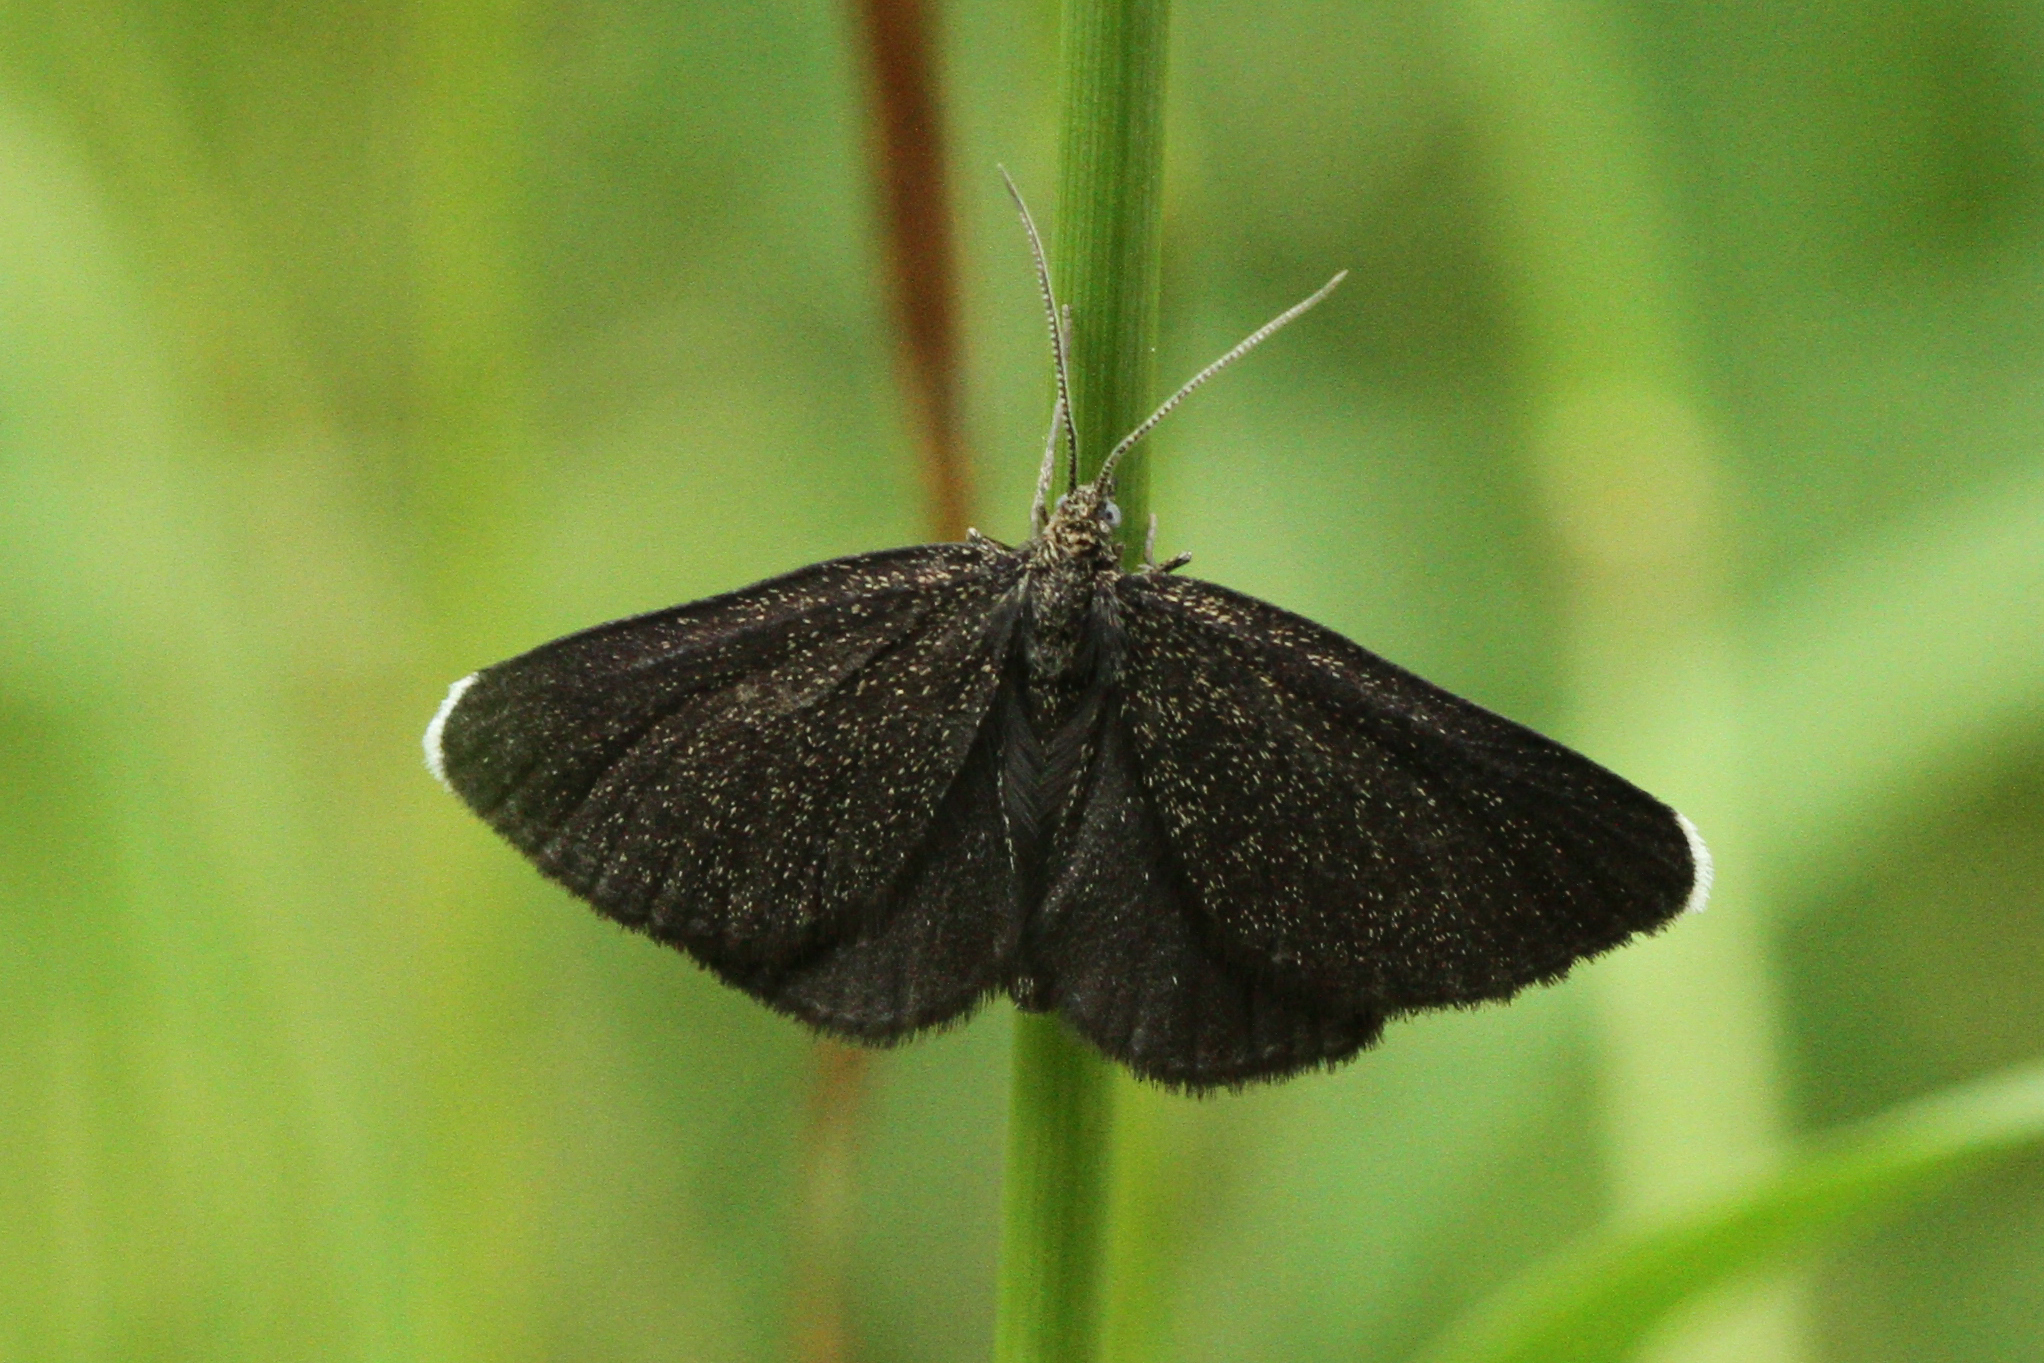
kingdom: Animalia
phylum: Arthropoda
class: Insecta
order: Lepidoptera
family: Geometridae
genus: Odezia
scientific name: Odezia atrata
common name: Chimney sweeper
